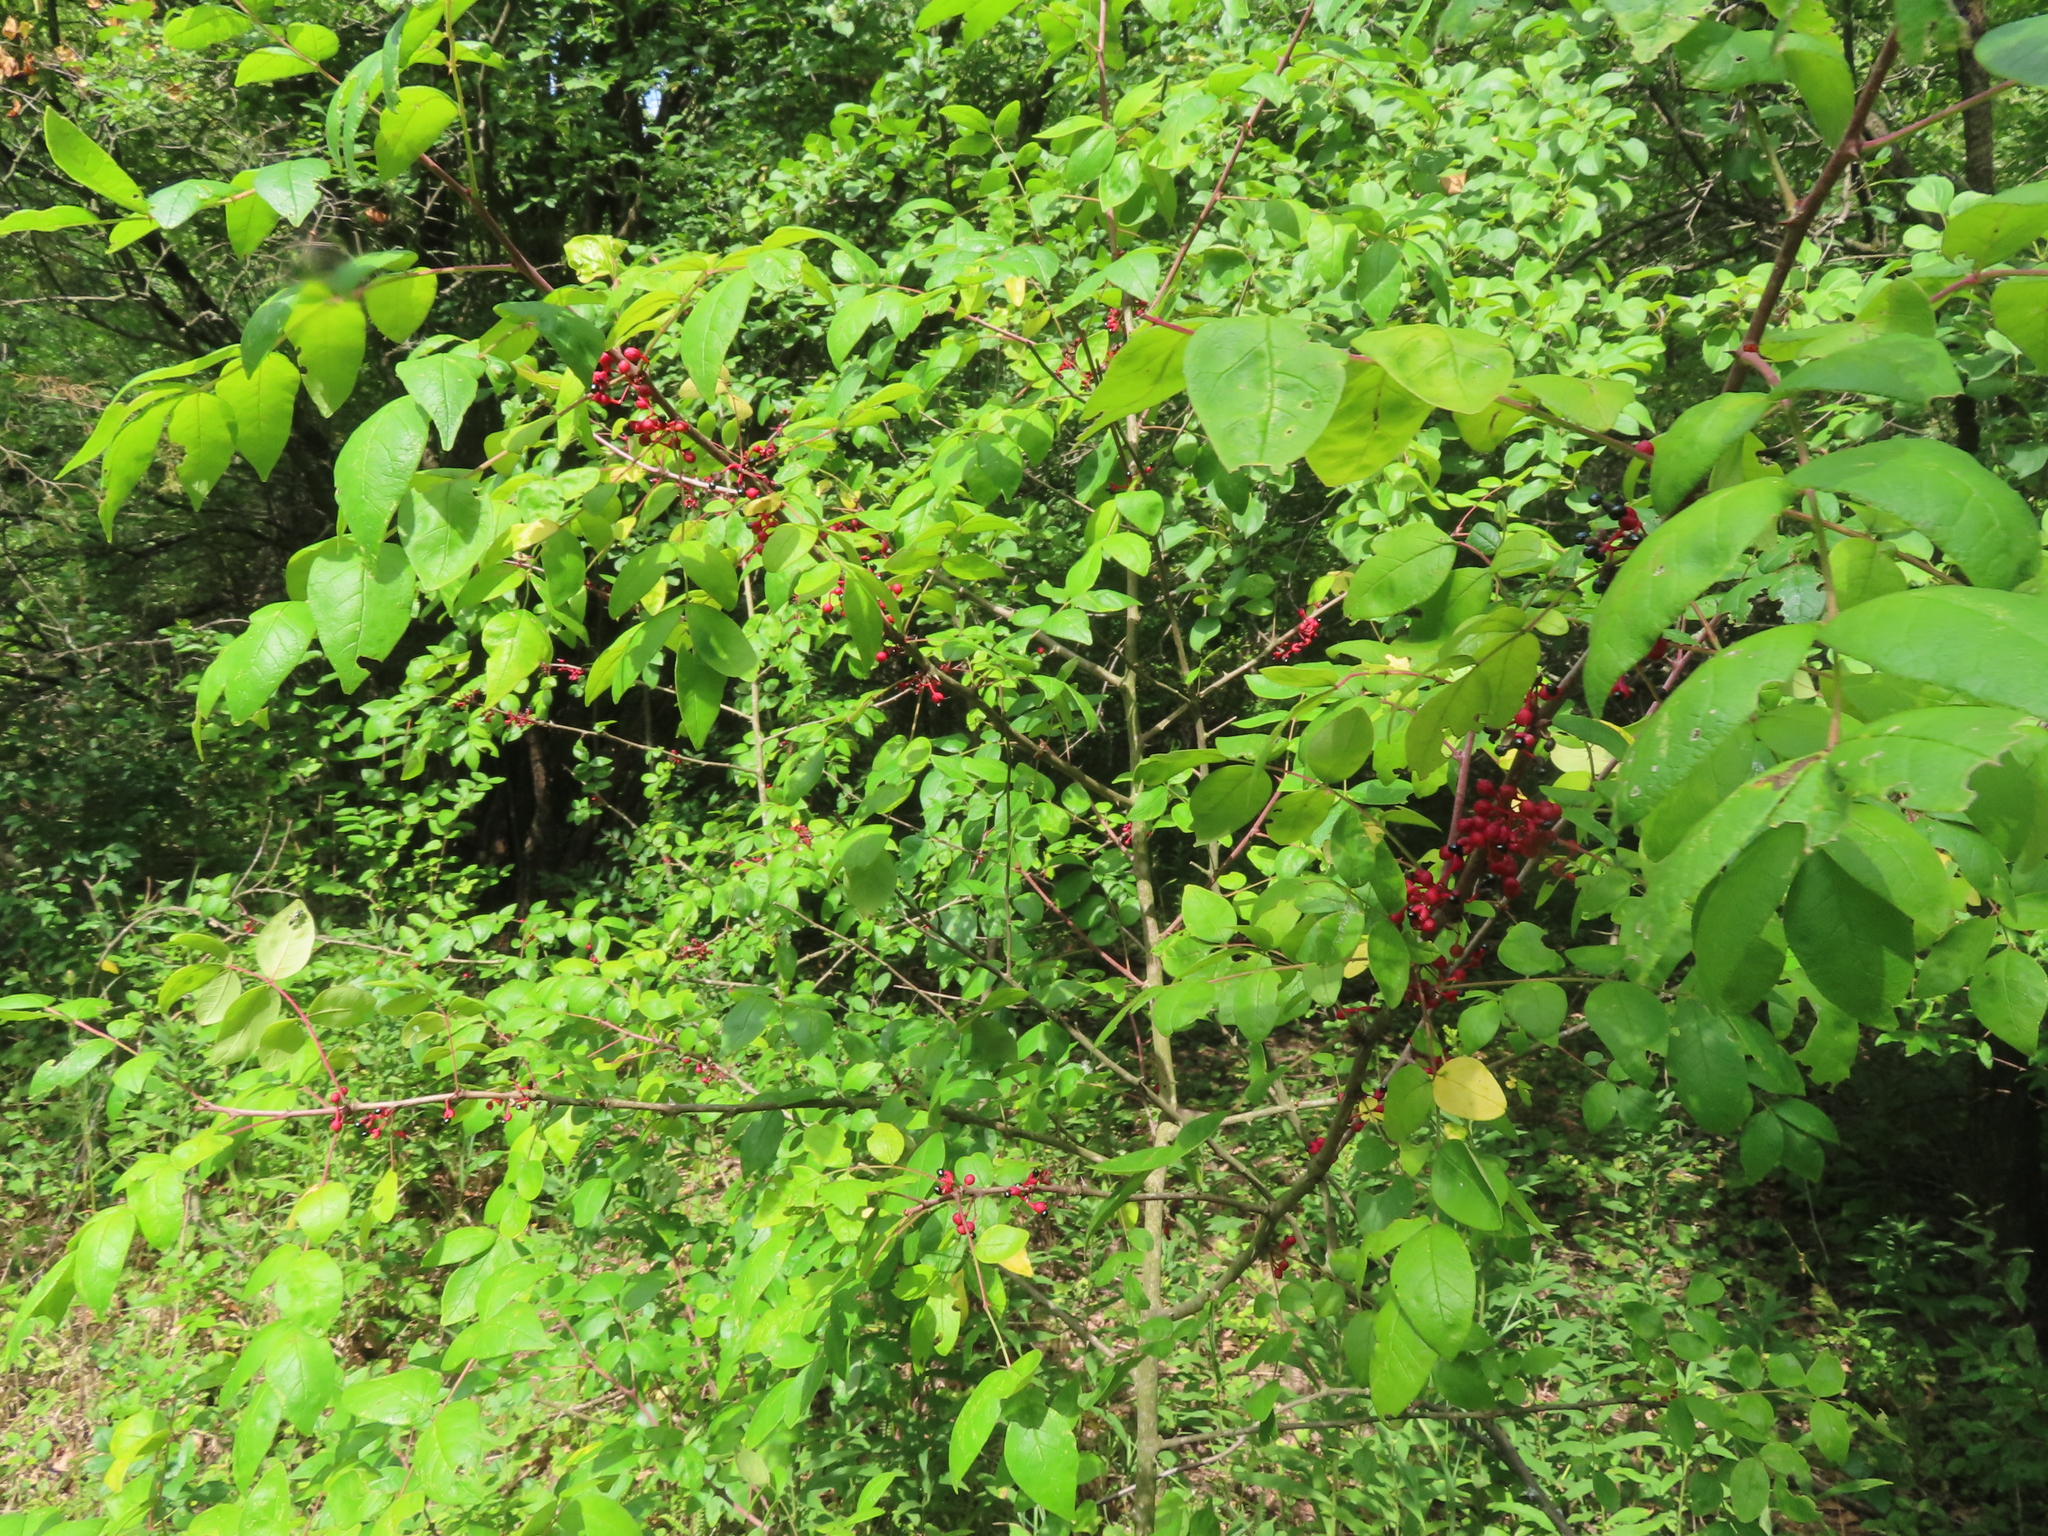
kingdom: Plantae
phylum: Tracheophyta
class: Magnoliopsida
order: Sapindales
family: Rutaceae
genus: Zanthoxylum
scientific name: Zanthoxylum americanum
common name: Northern prickly-ash
